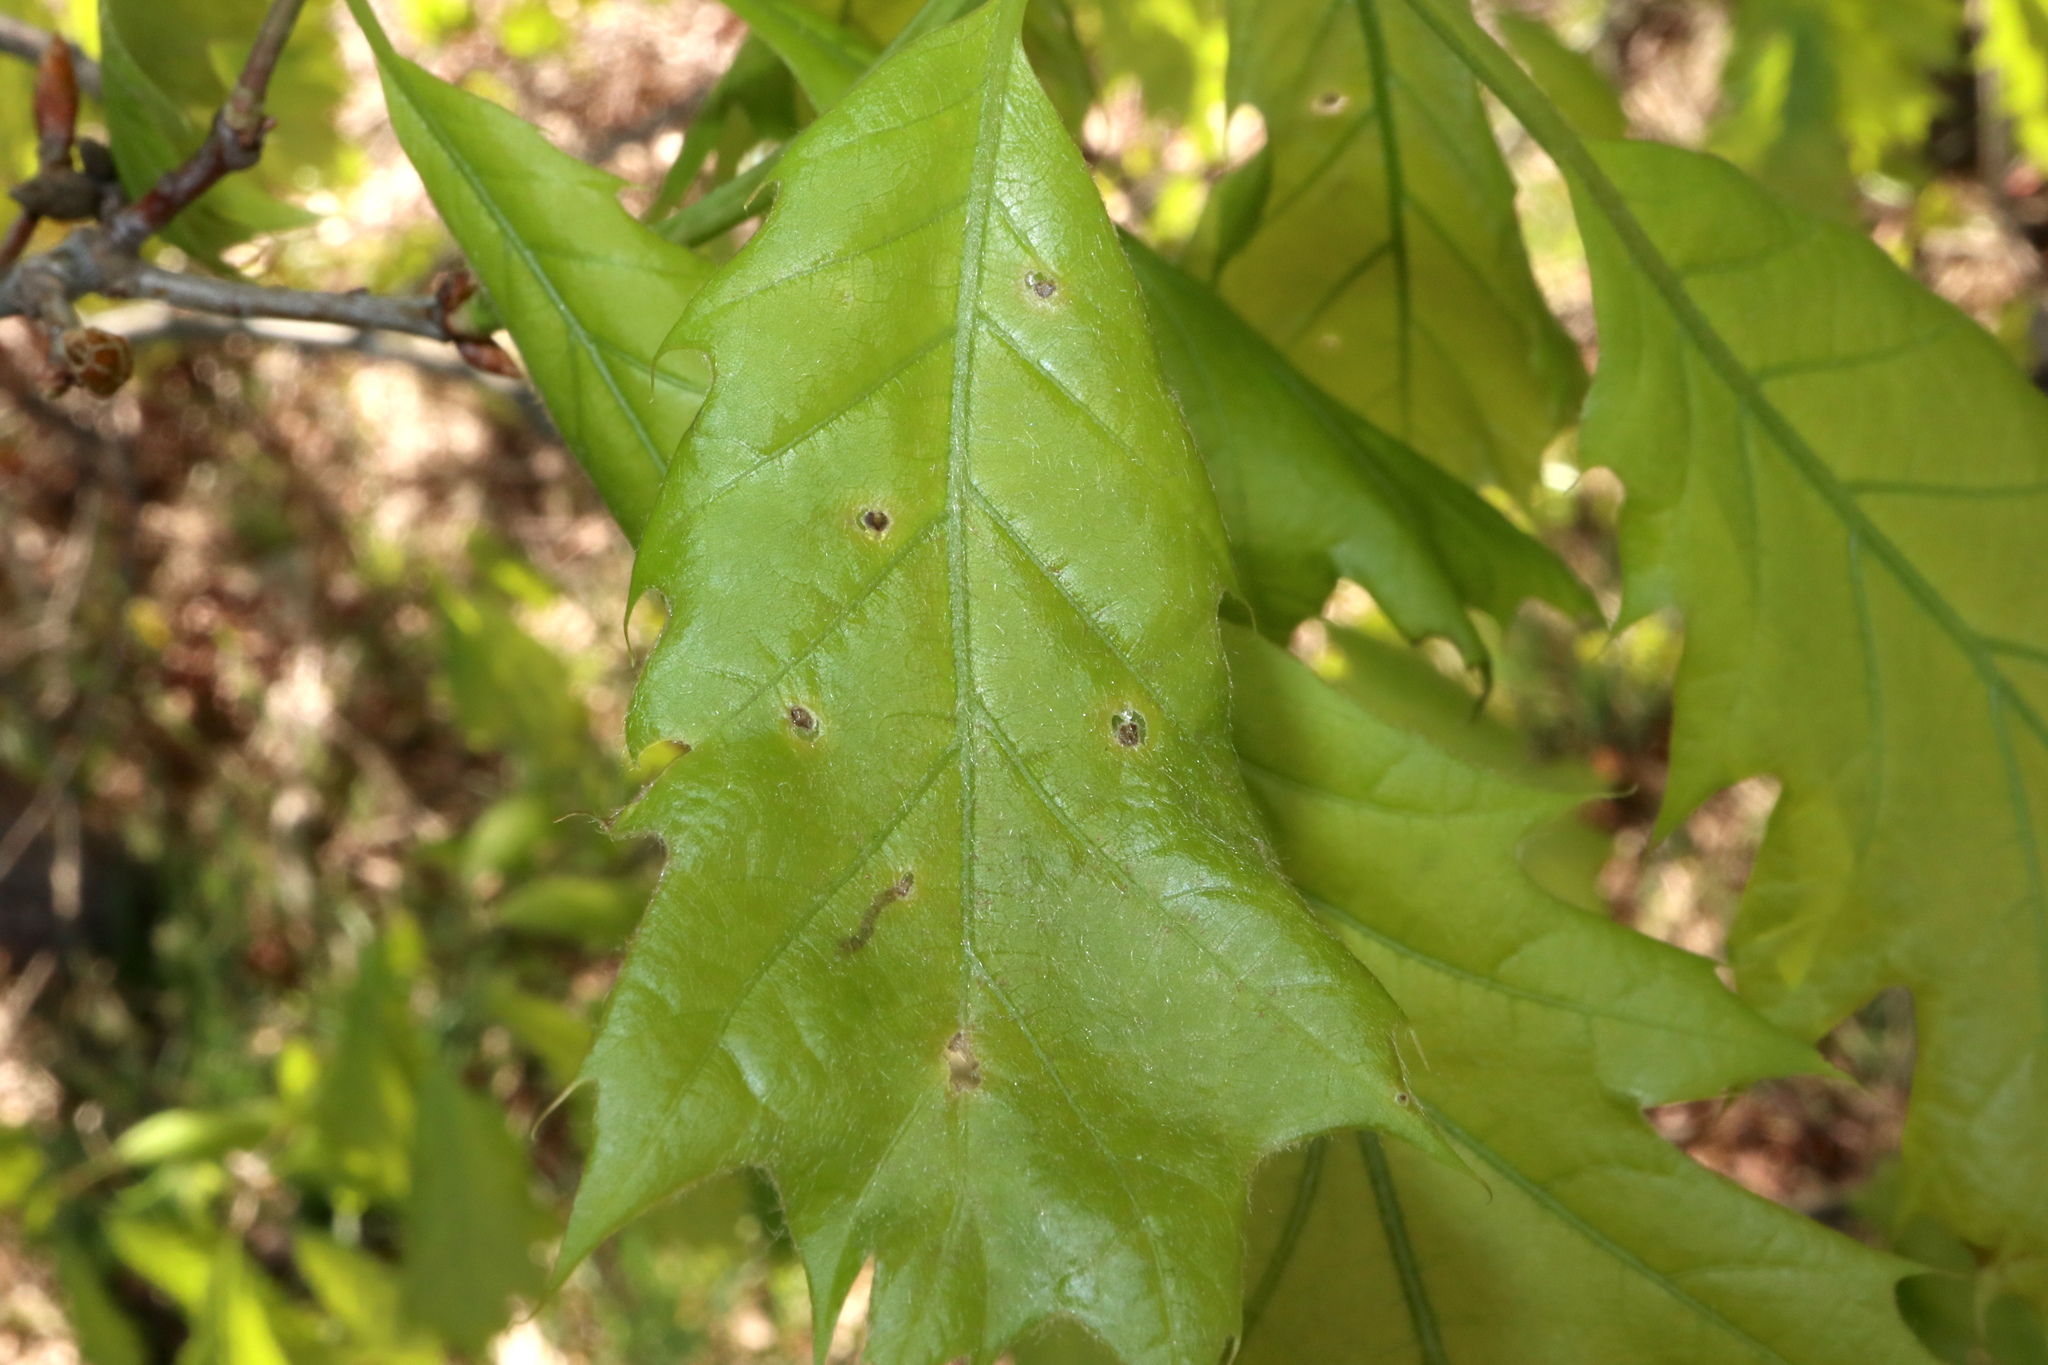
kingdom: Animalia
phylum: Arthropoda
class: Insecta
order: Diptera
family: Agromyzidae
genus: Japanagromyza
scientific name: Japanagromyza viridula
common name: Oak shothole leafminer
